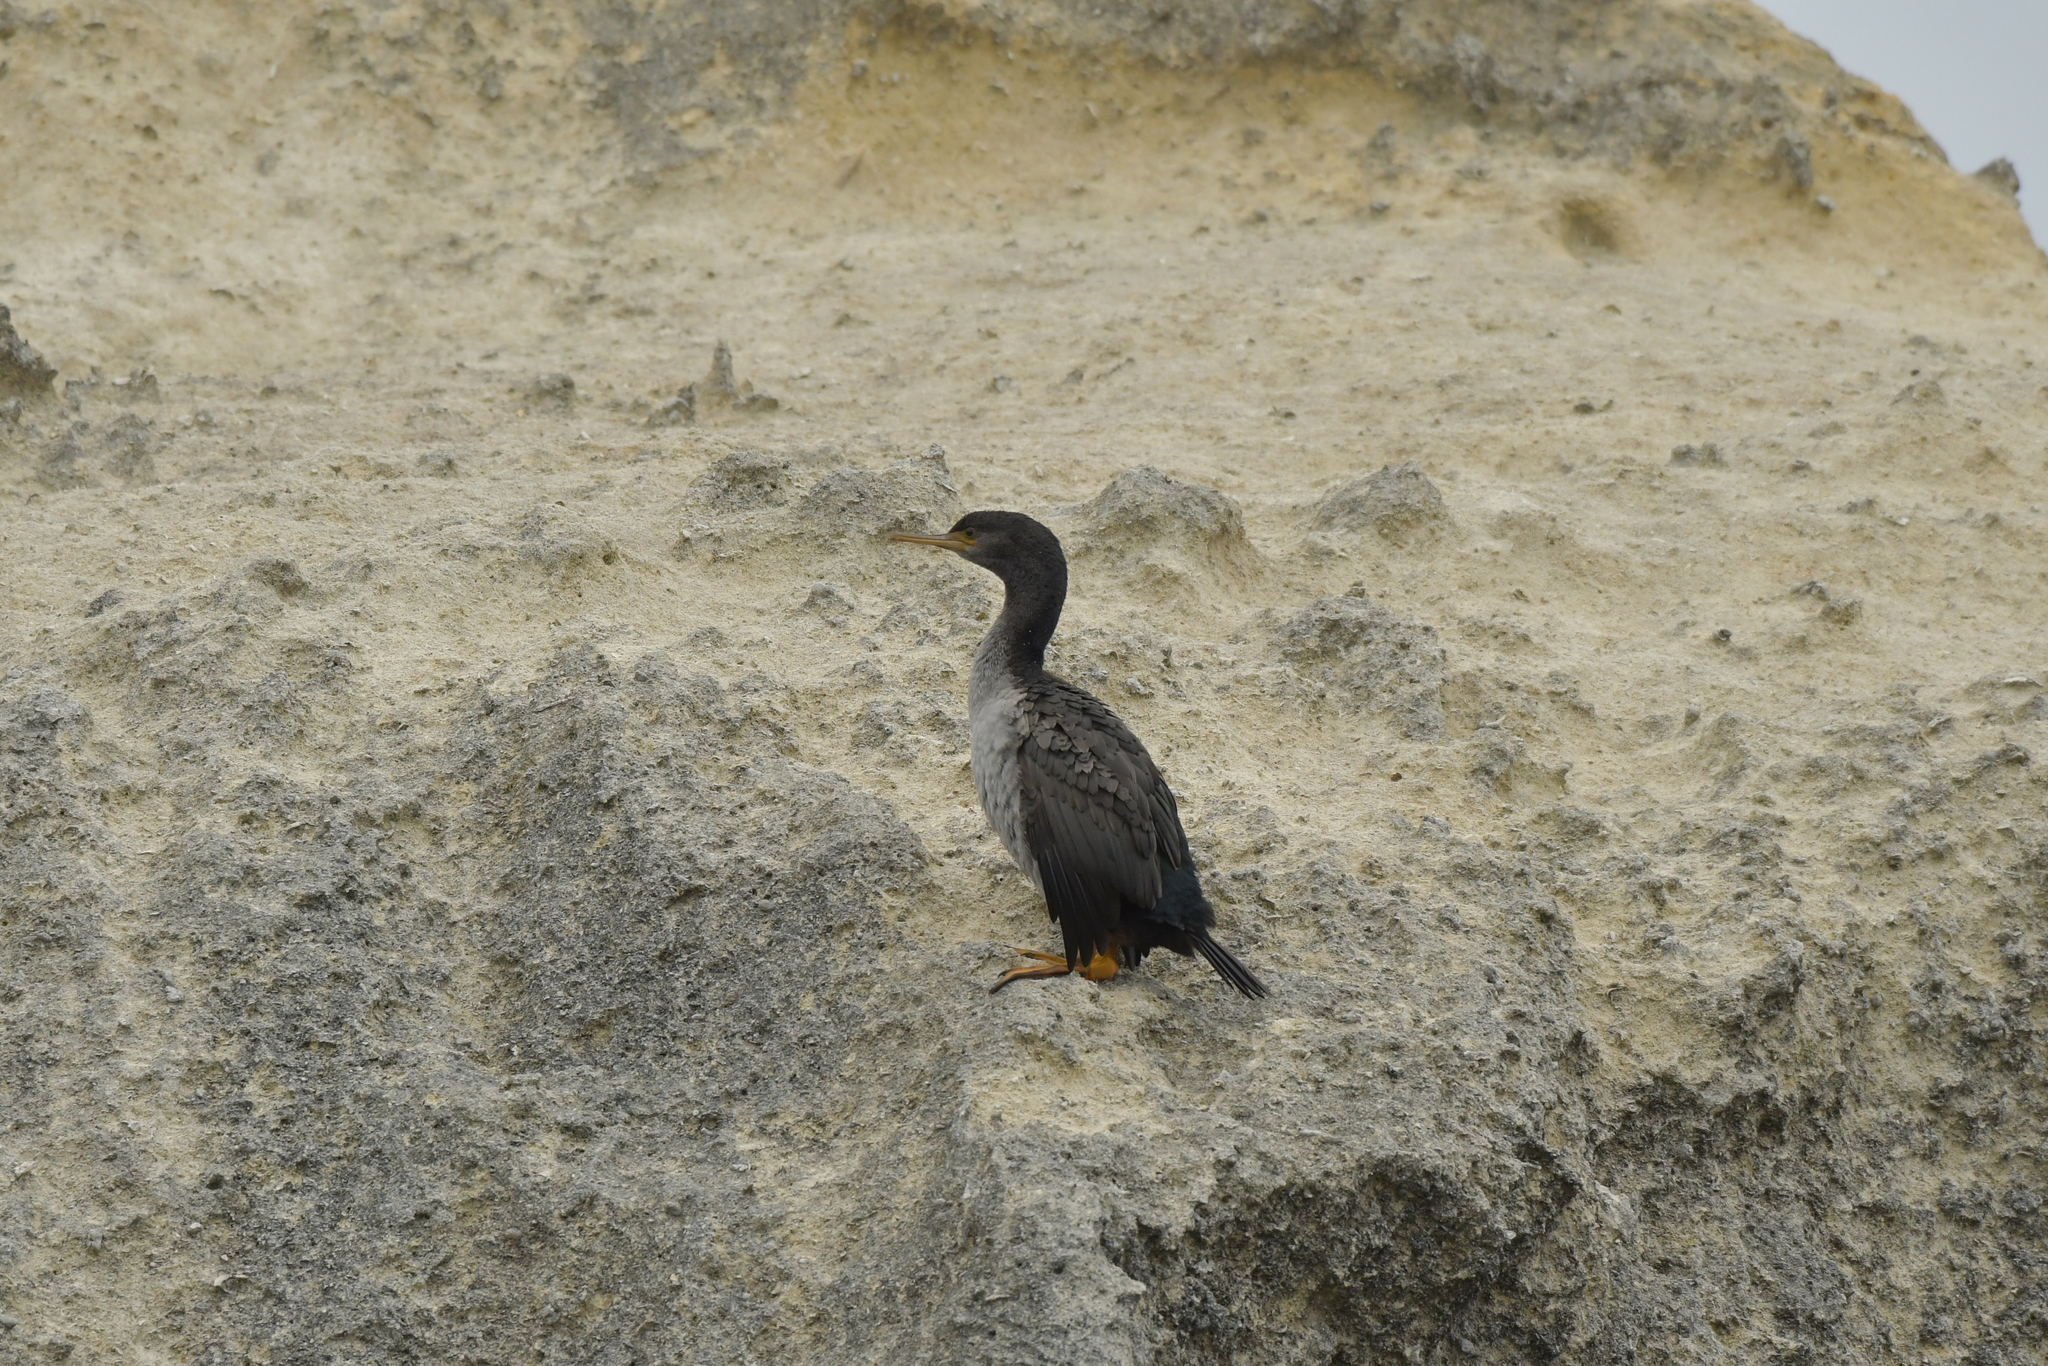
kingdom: Animalia
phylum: Chordata
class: Aves
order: Suliformes
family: Phalacrocoracidae
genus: Phalacrocorax
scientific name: Phalacrocorax featherstoni
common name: Pitt shag
